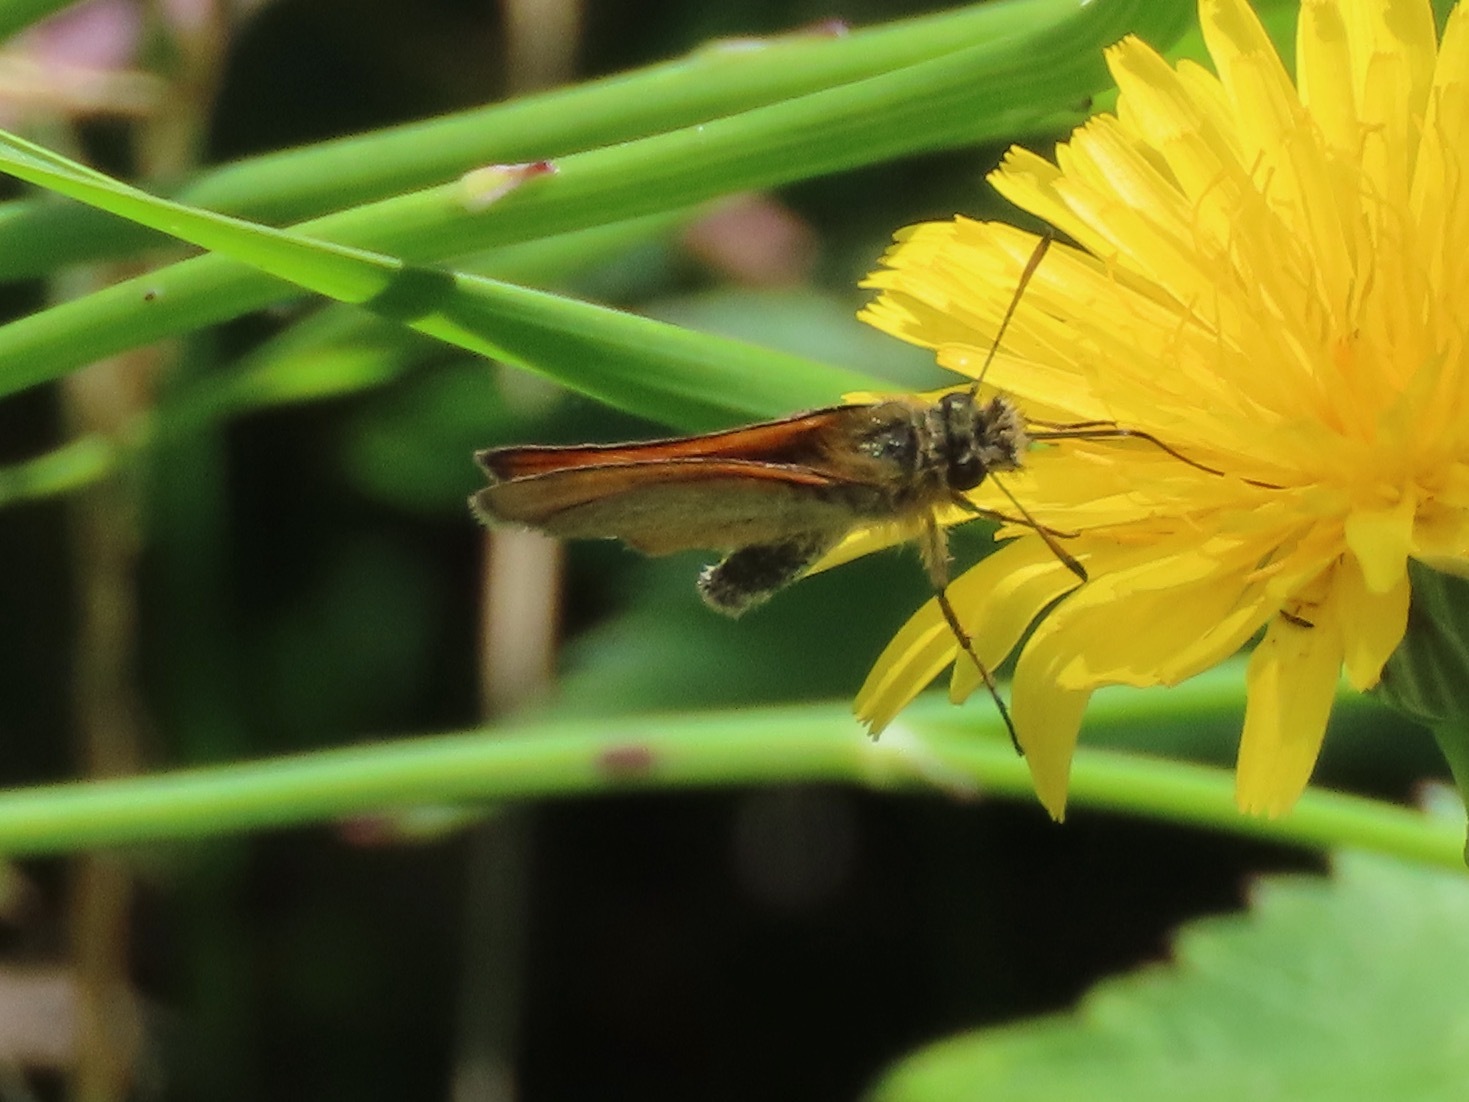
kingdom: Animalia
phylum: Arthropoda
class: Insecta
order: Lepidoptera
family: Hesperiidae
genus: Thymelicus
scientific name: Thymelicus lineola
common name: Essex skipper
